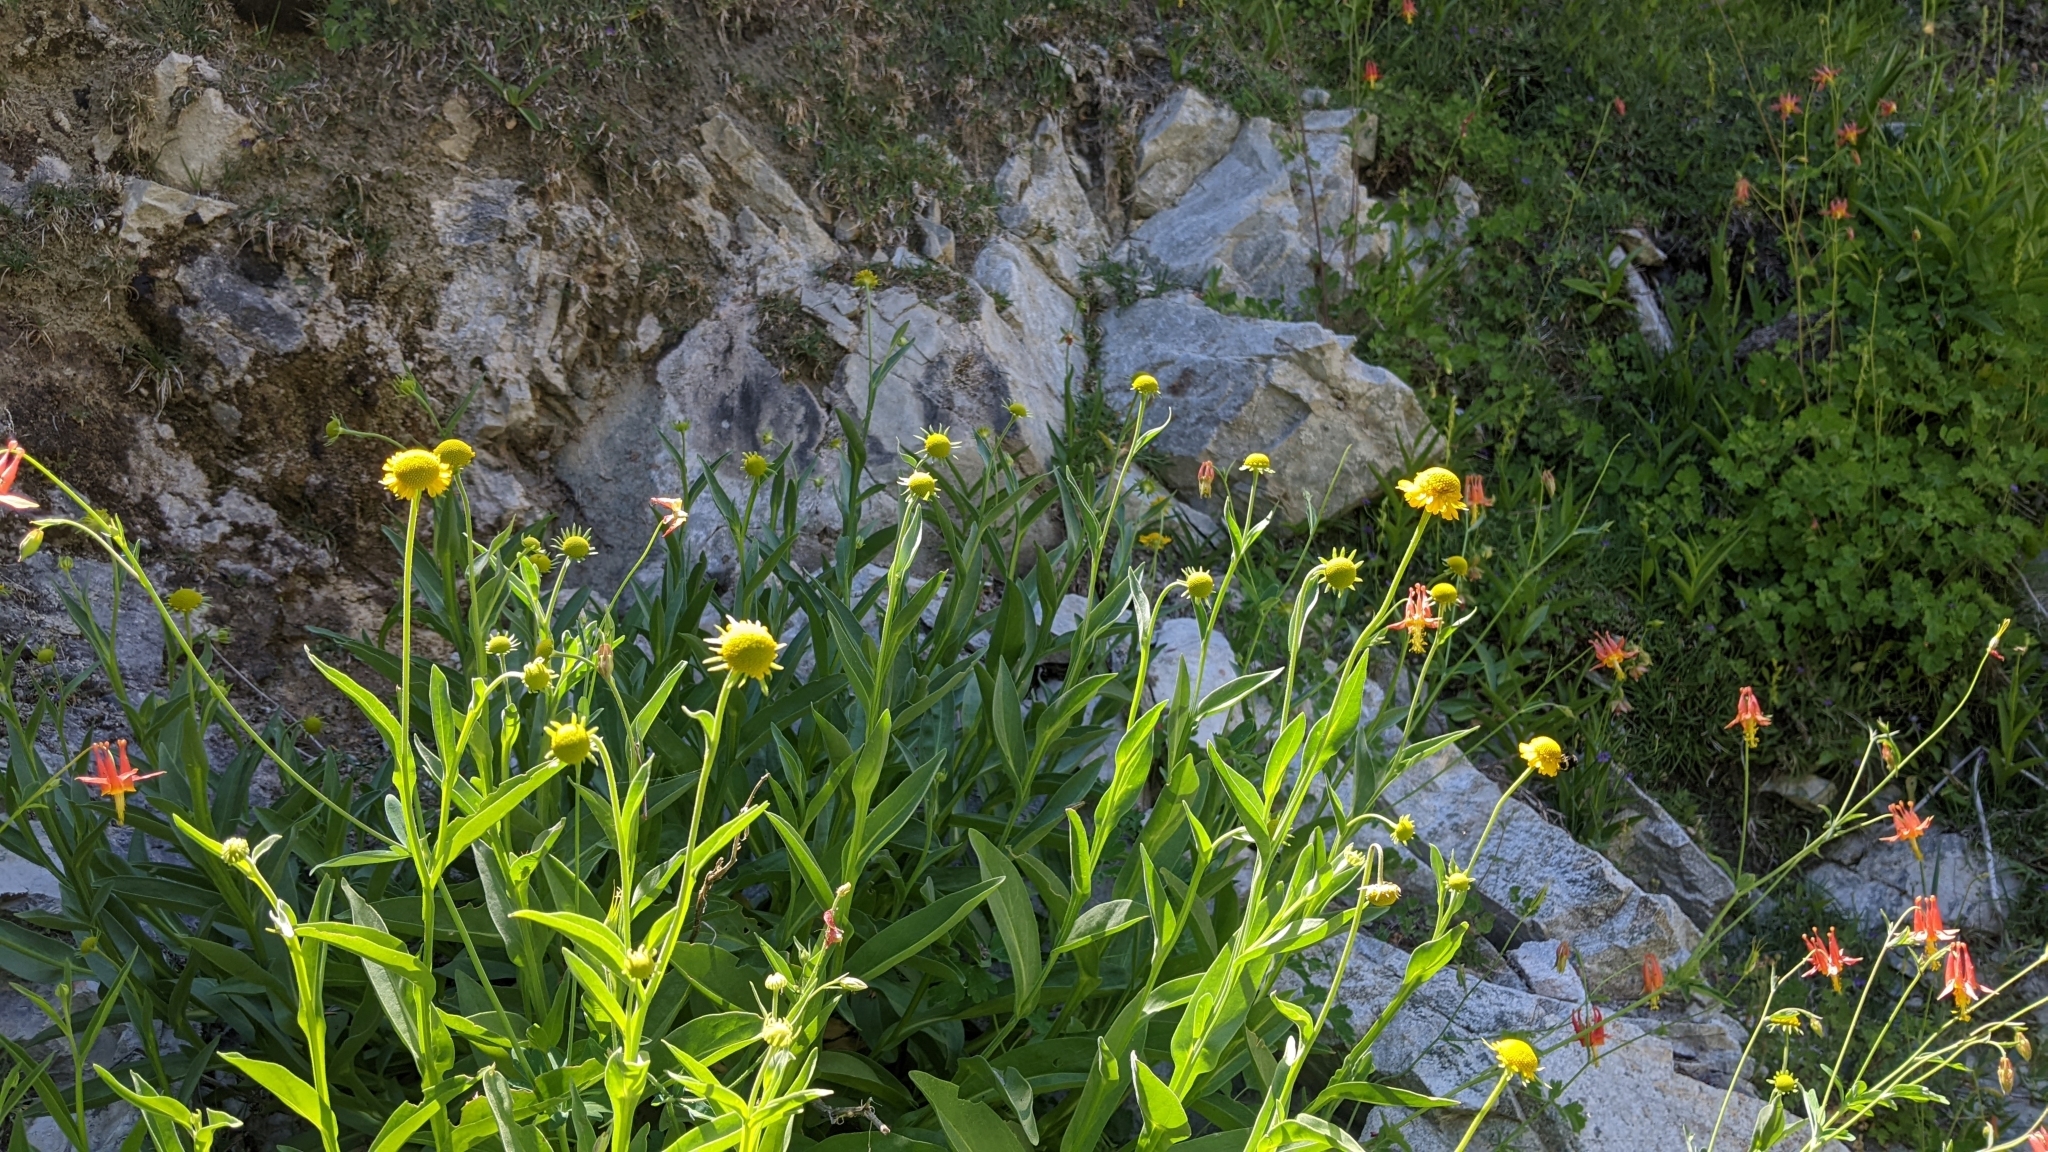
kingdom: Plantae
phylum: Tracheophyta
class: Magnoliopsida
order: Asterales
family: Asteraceae
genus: Helenium
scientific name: Helenium bigelovii
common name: Bigelow's sneezeweed
